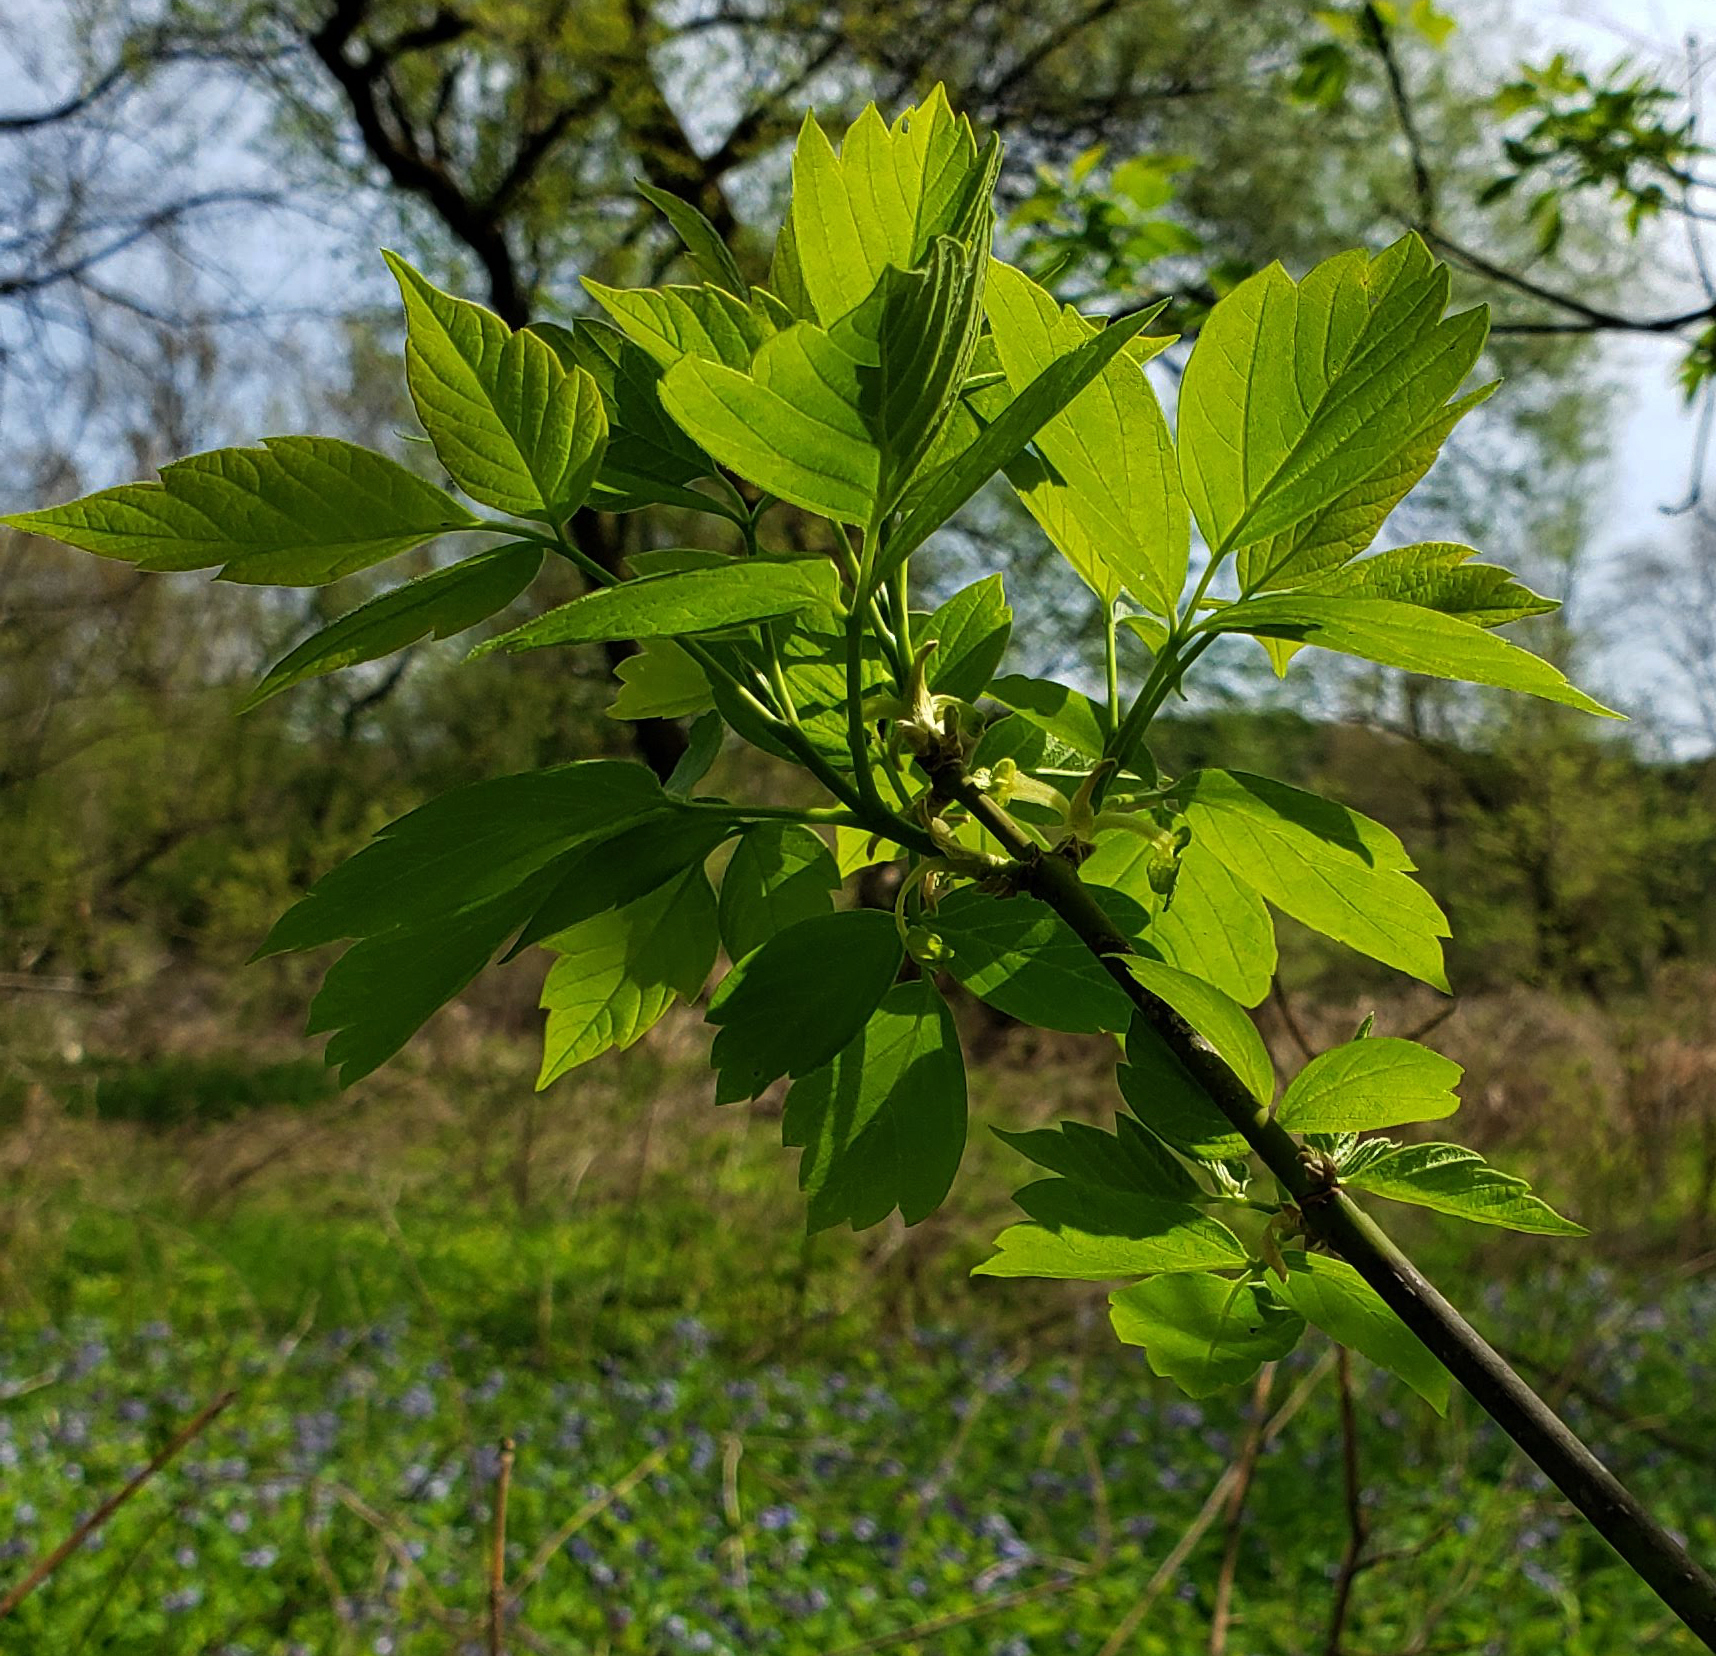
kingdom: Plantae
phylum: Tracheophyta
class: Magnoliopsida
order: Sapindales
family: Sapindaceae
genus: Acer
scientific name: Acer negundo
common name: Ashleaf maple
